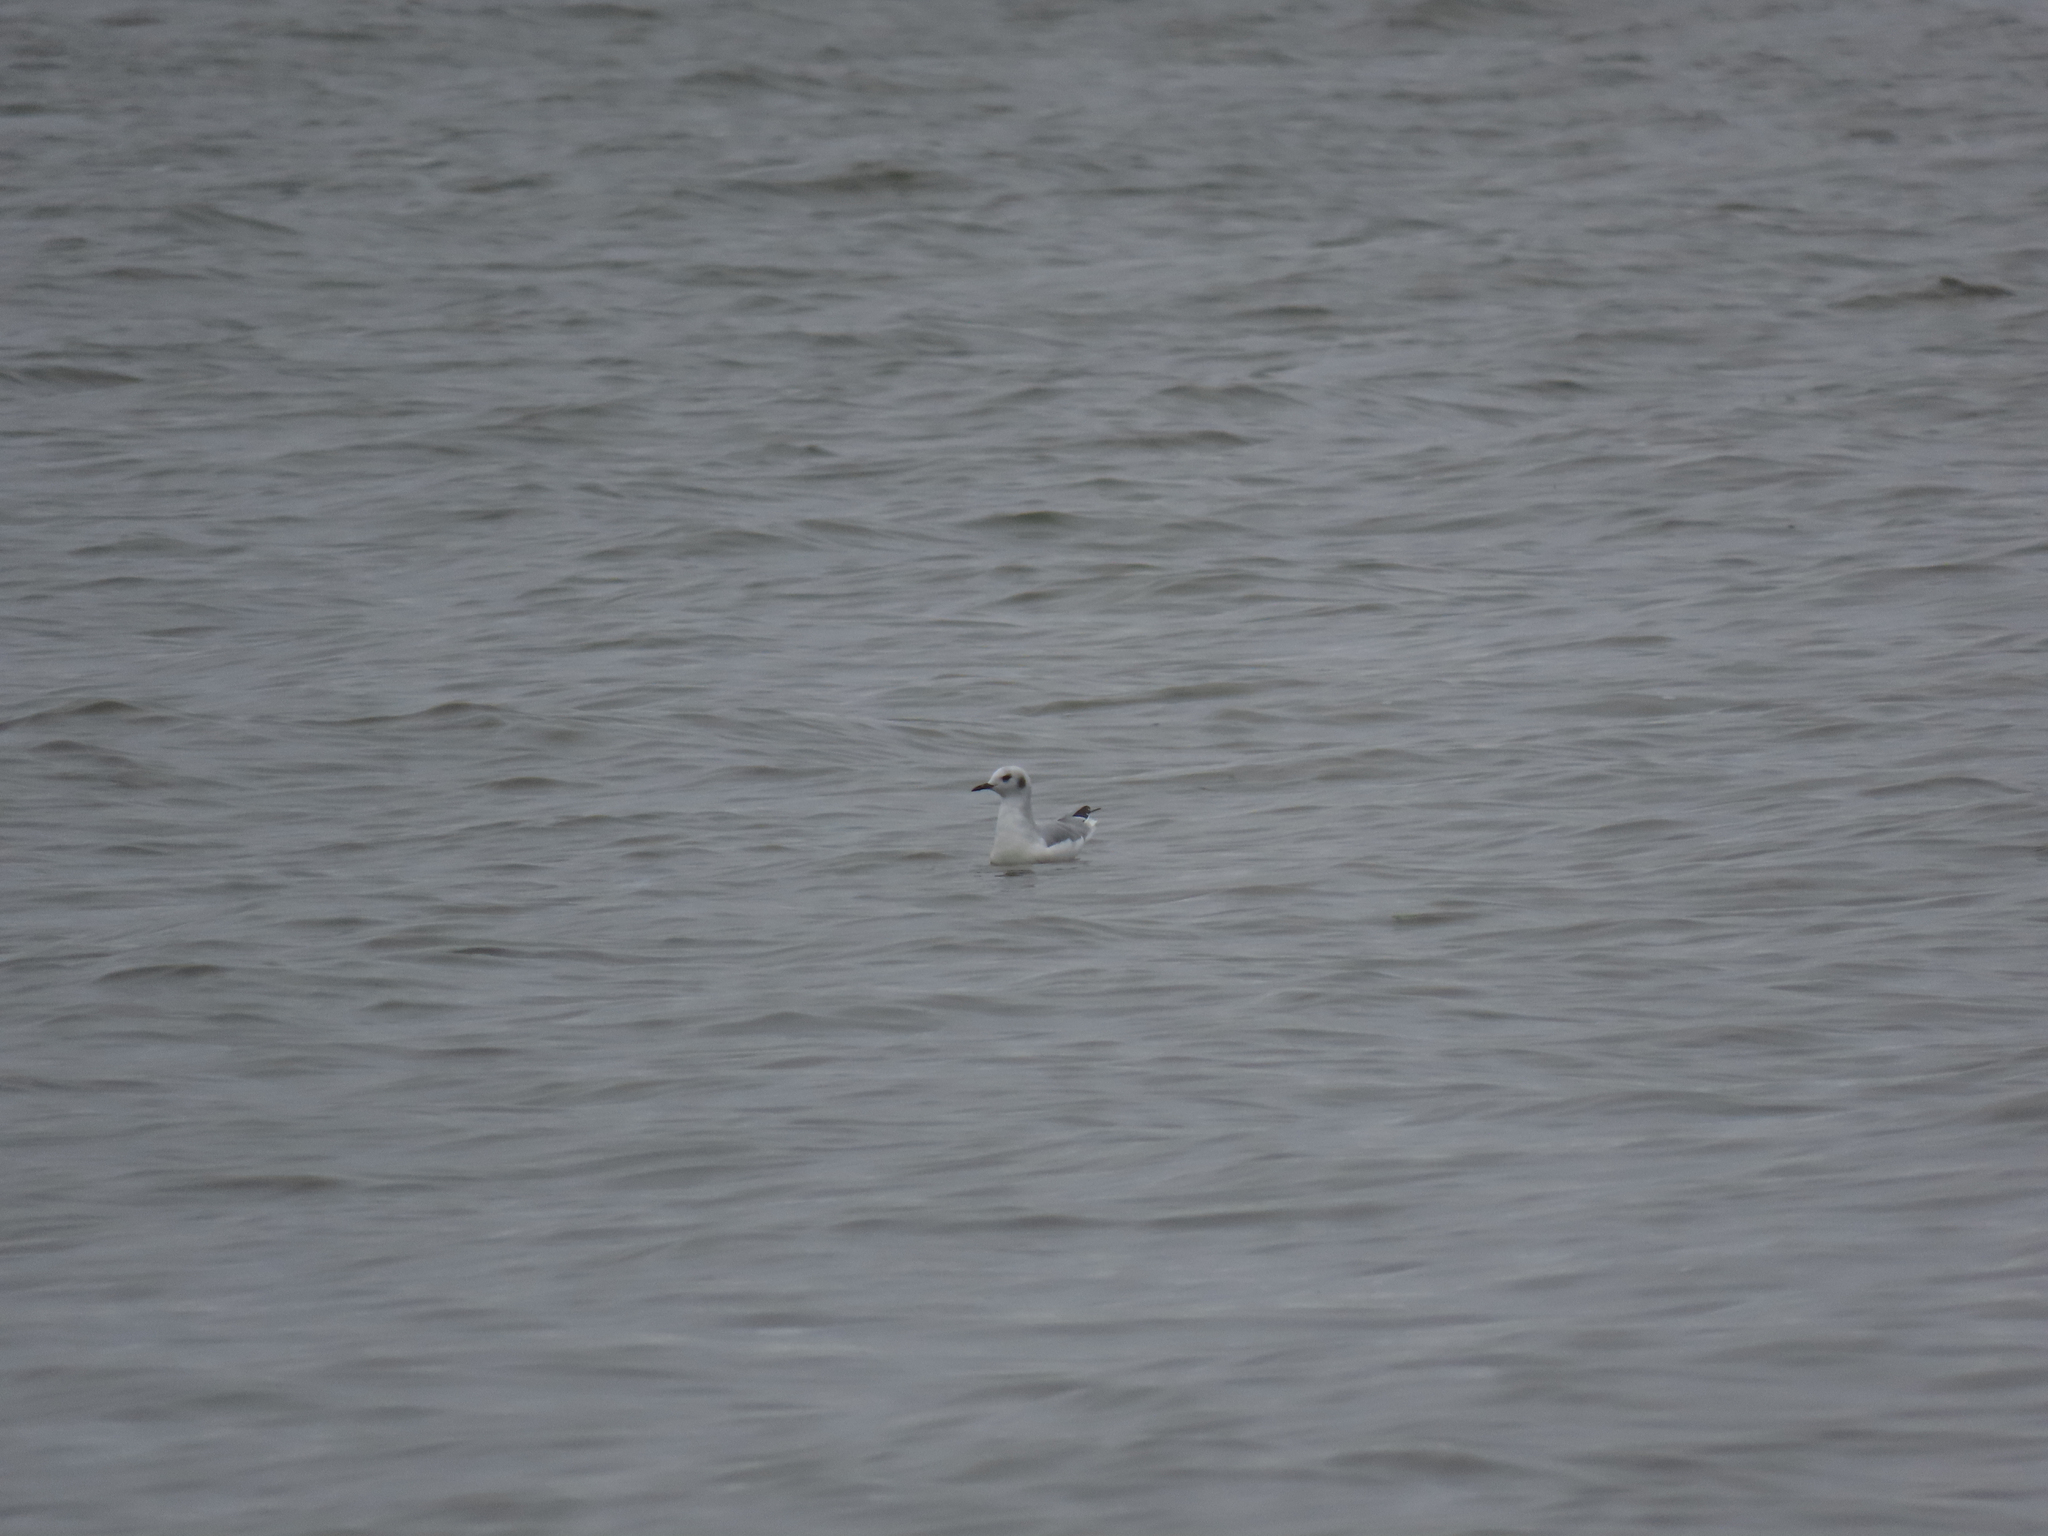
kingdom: Animalia
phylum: Chordata
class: Aves
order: Charadriiformes
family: Laridae
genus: Chroicocephalus
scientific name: Chroicocephalus philadelphia
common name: Bonaparte's gull
